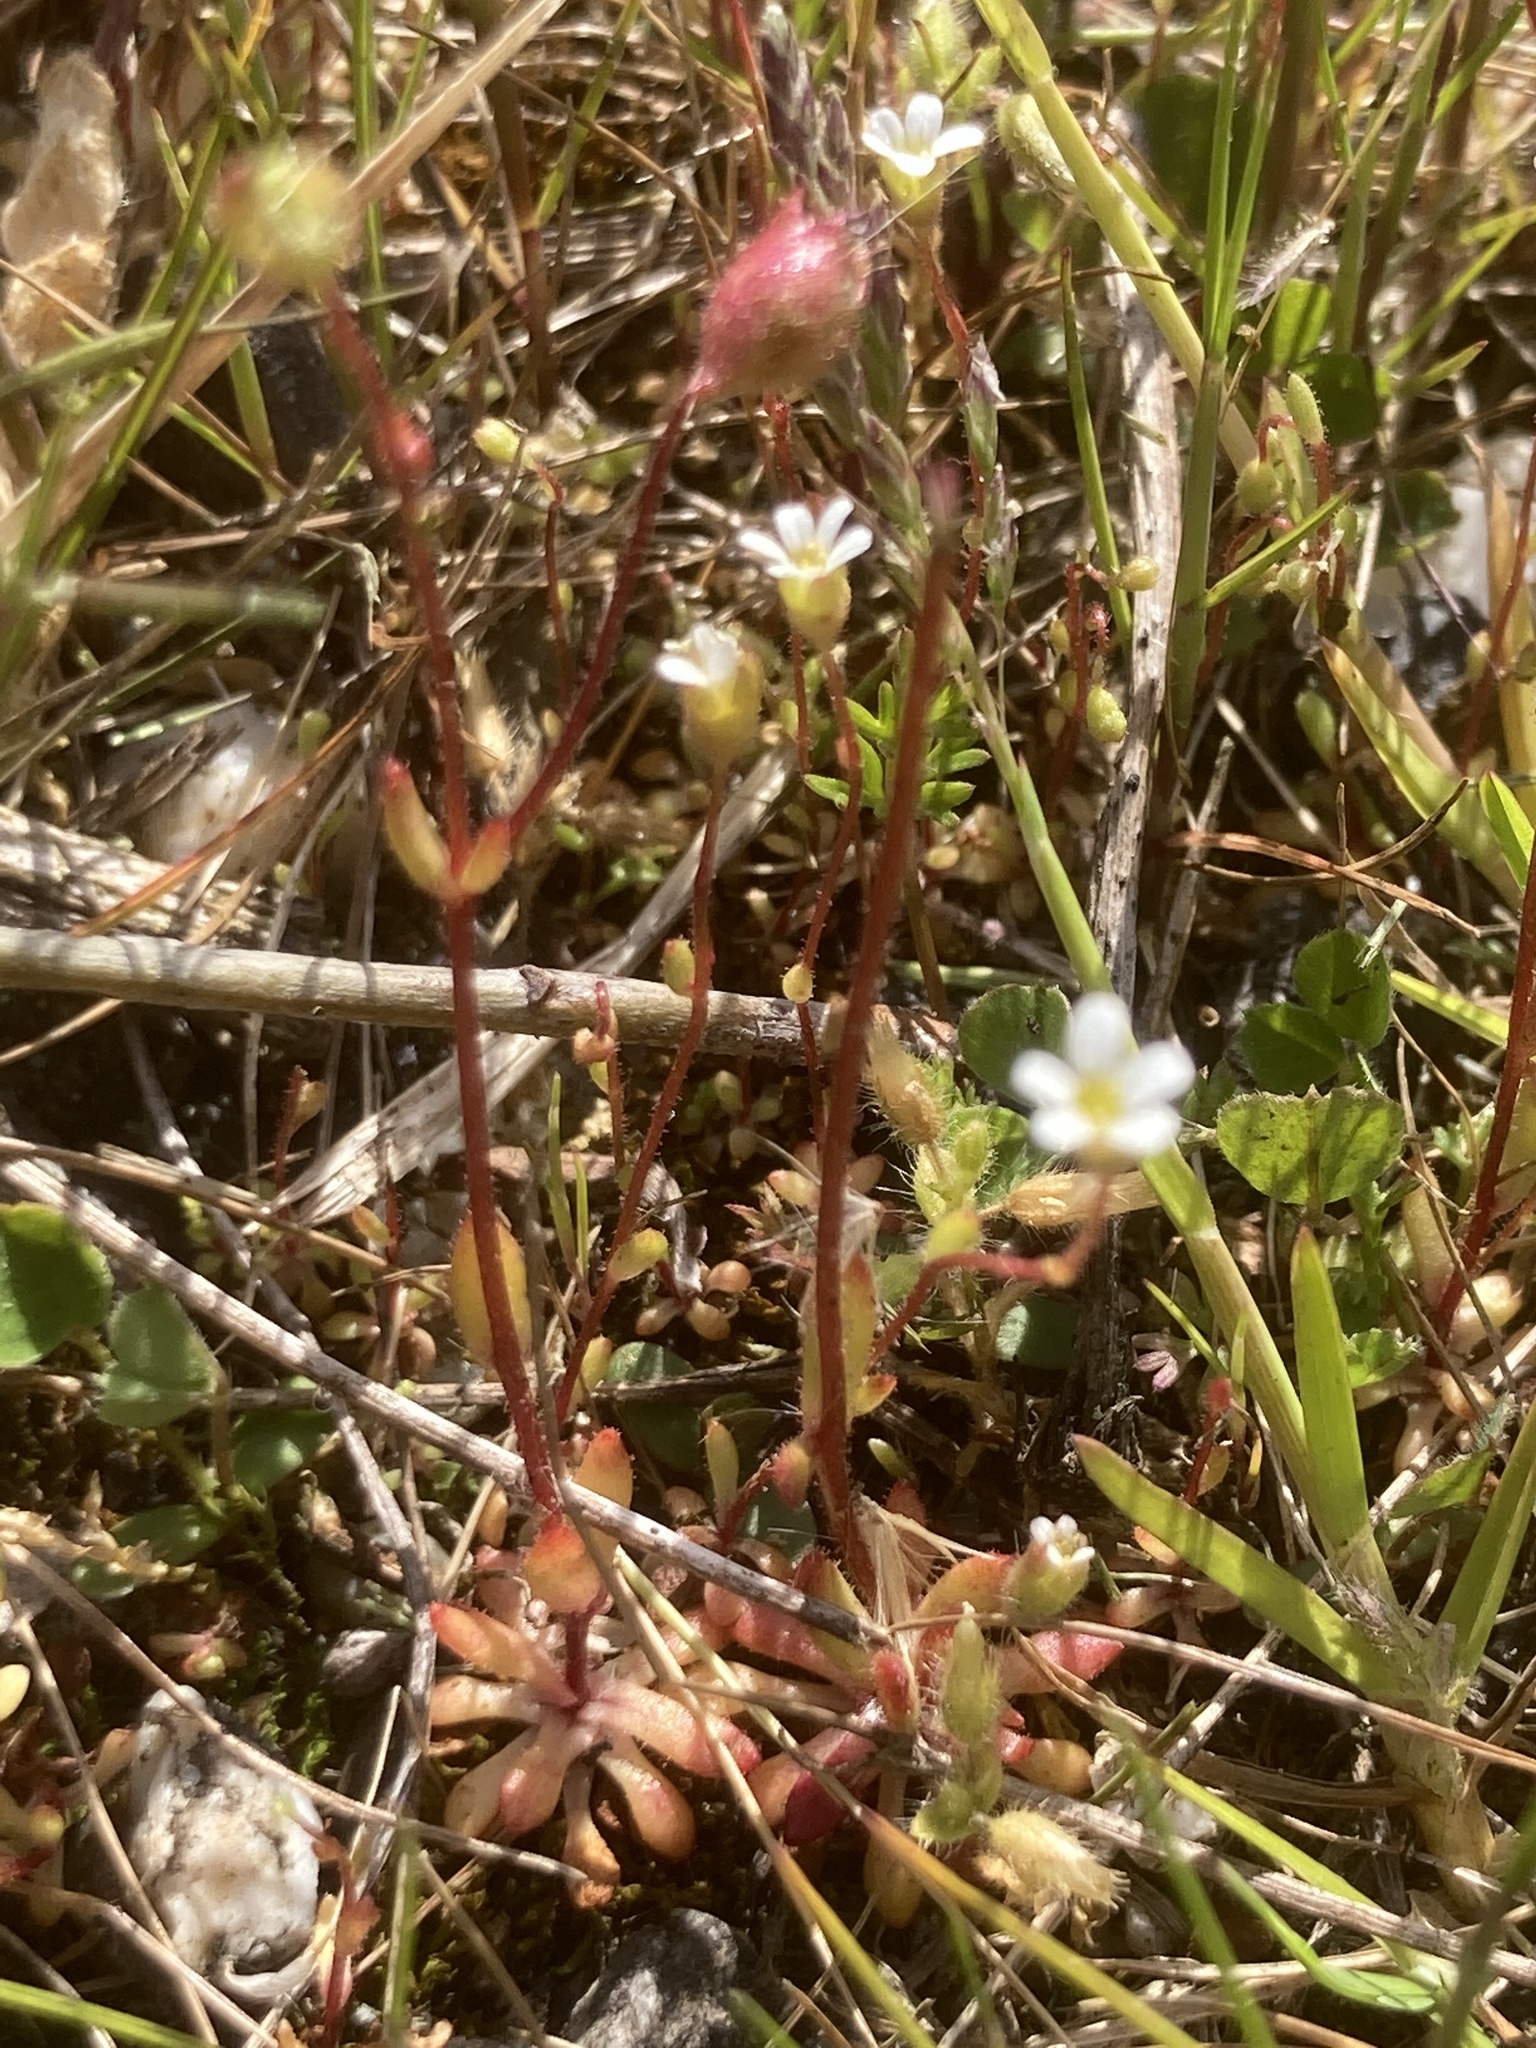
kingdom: Plantae
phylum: Tracheophyta
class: Magnoliopsida
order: Saxifragales
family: Saxifragaceae
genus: Saxifraga
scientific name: Saxifraga tridactylites
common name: Rue-leaved saxifrage
